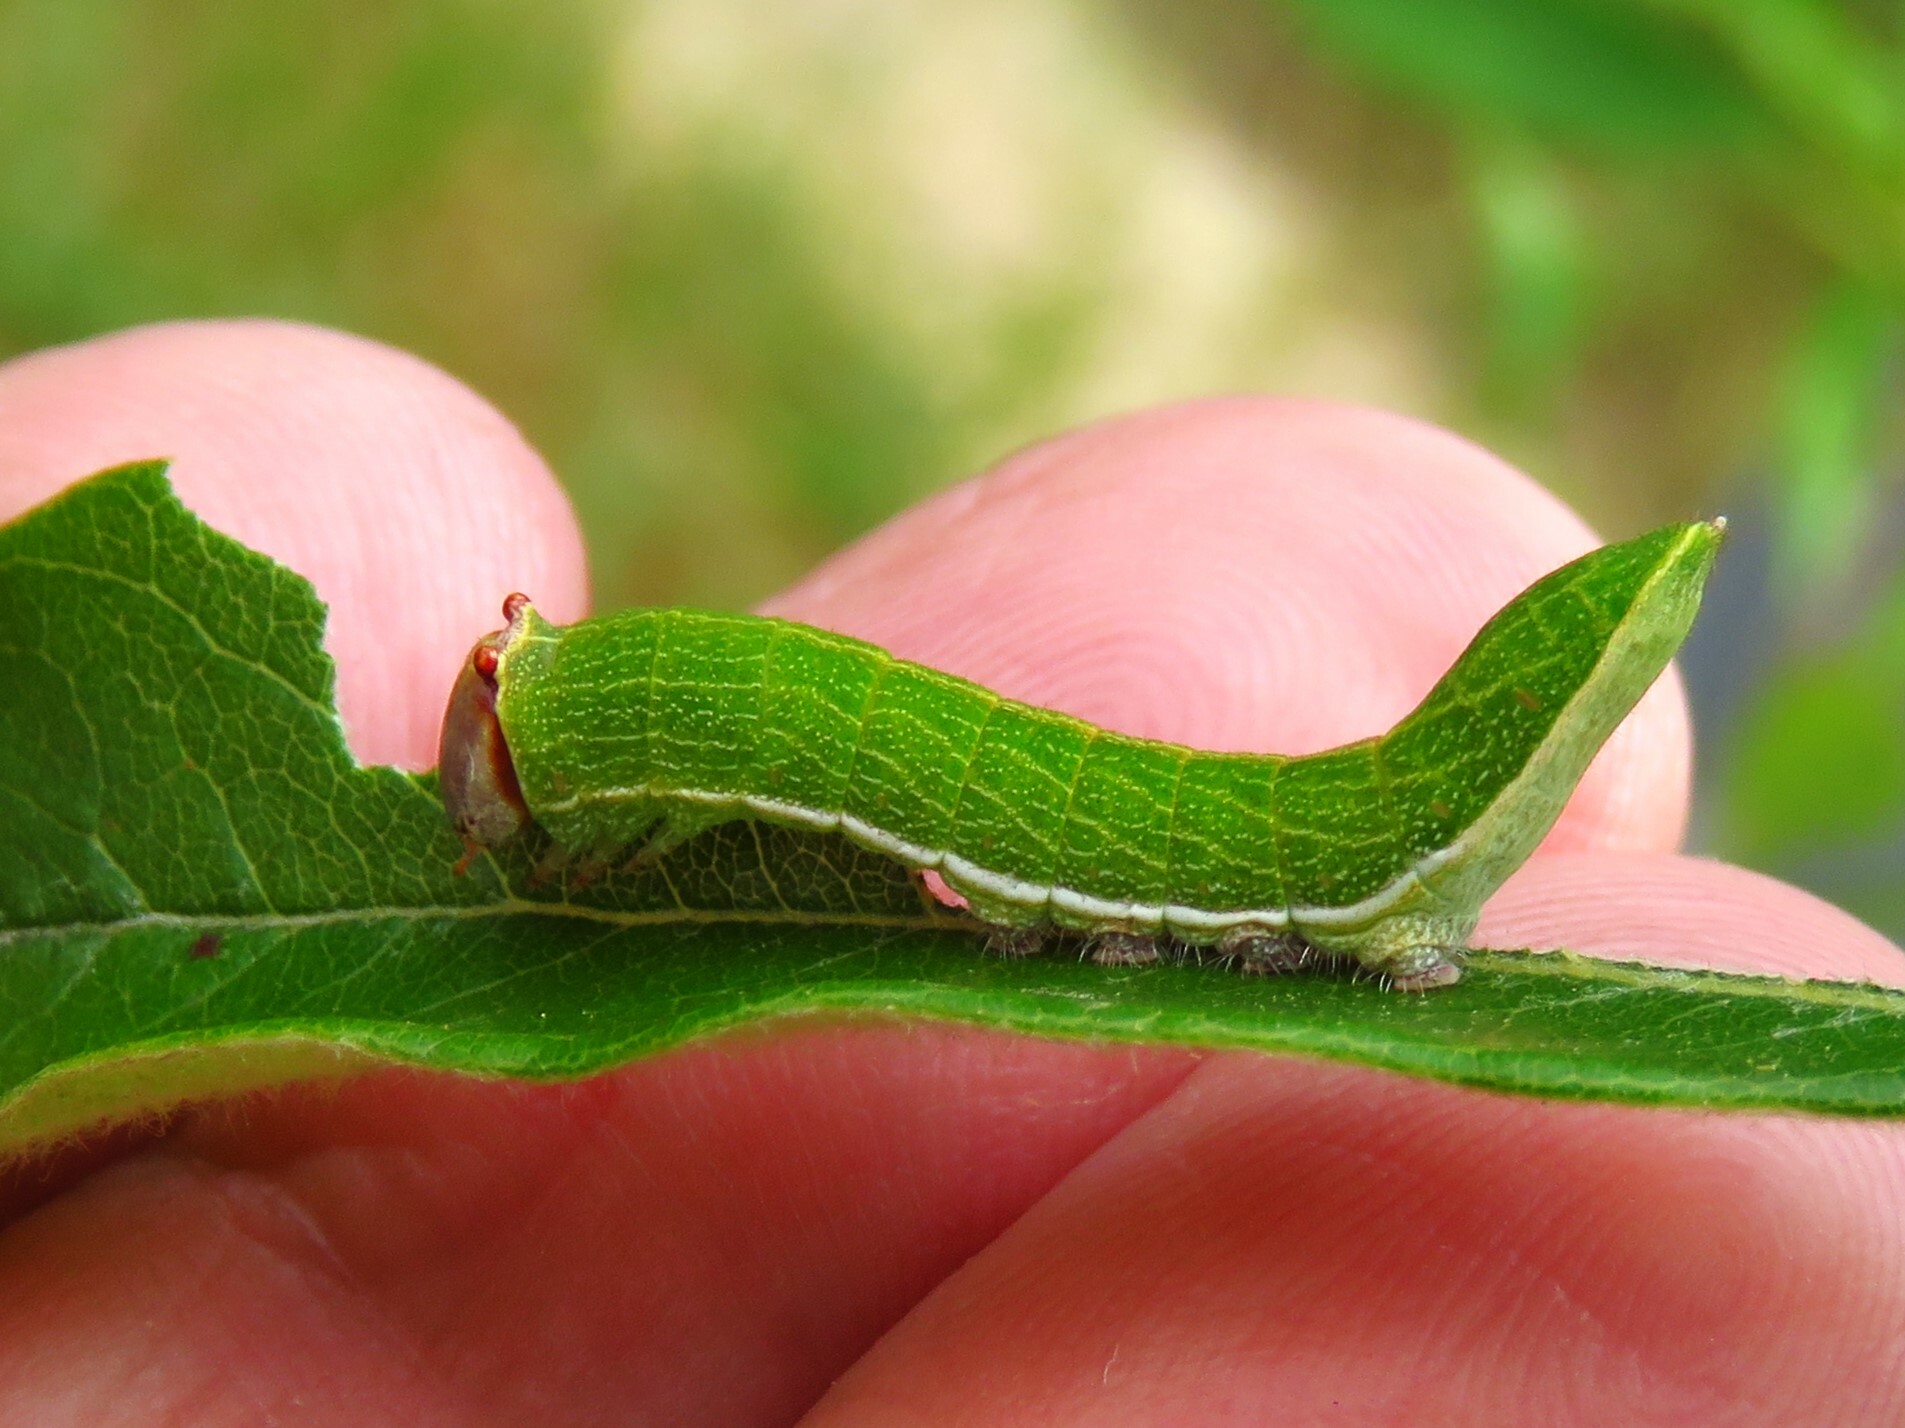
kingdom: Animalia
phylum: Arthropoda
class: Insecta
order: Lepidoptera
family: Notodontidae
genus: Litodonta
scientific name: Litodonta hydromeli
